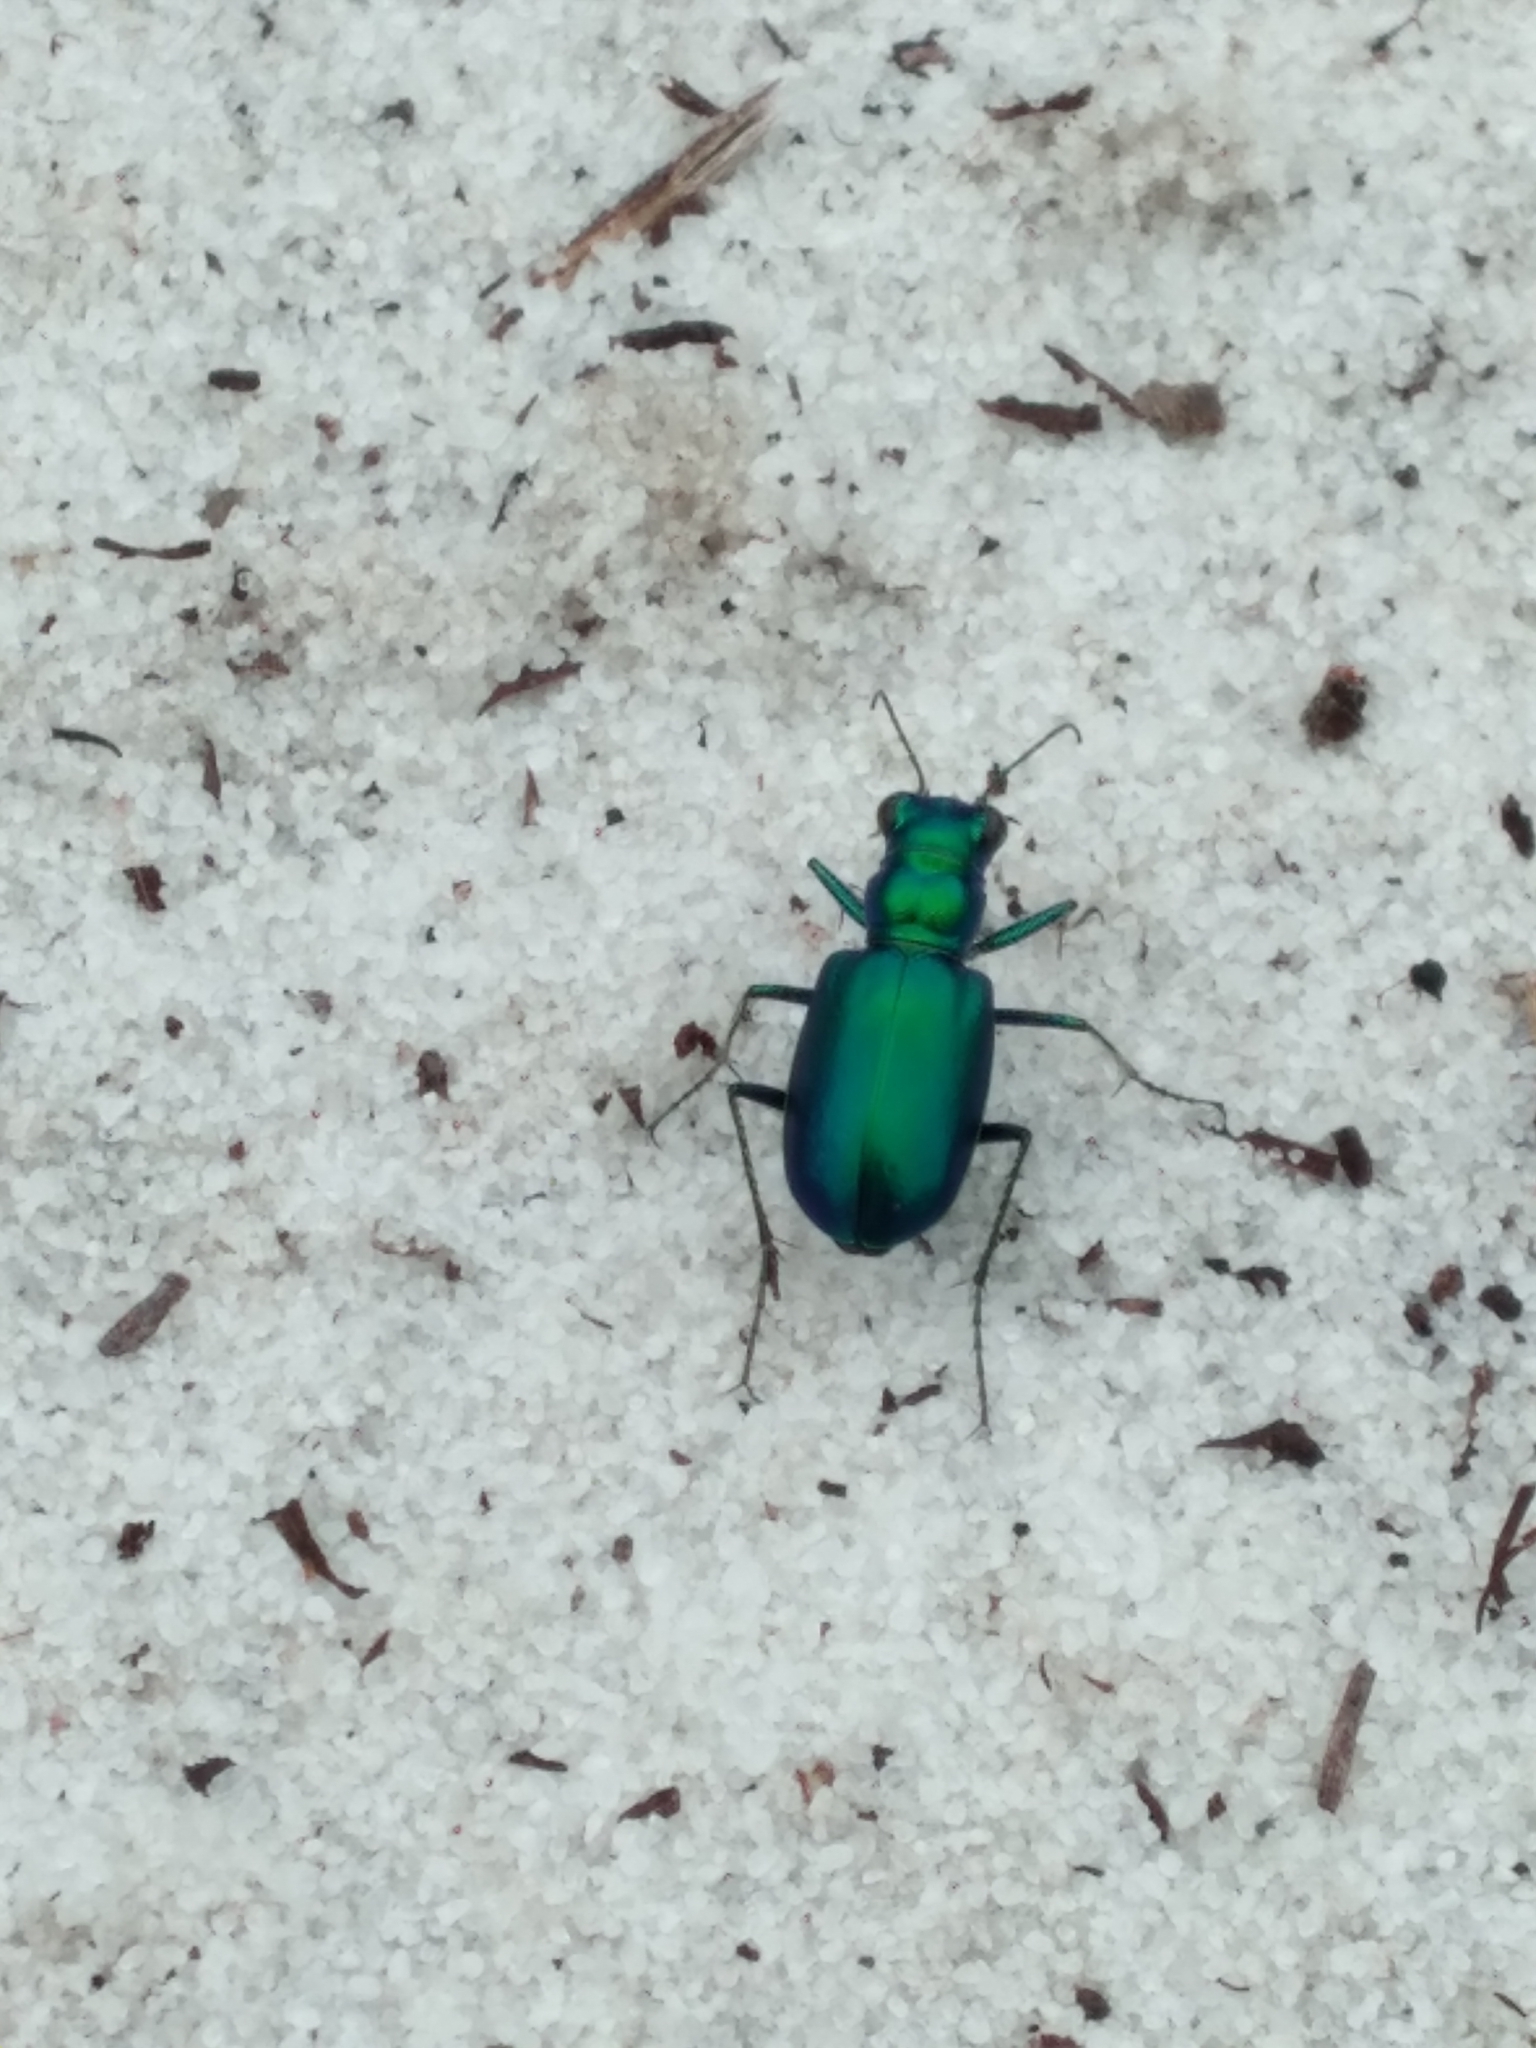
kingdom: Animalia
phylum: Arthropoda
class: Insecta
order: Coleoptera
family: Carabidae
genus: Cicindela
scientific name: Cicindela scutellaris
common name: Festive tiger beetle
